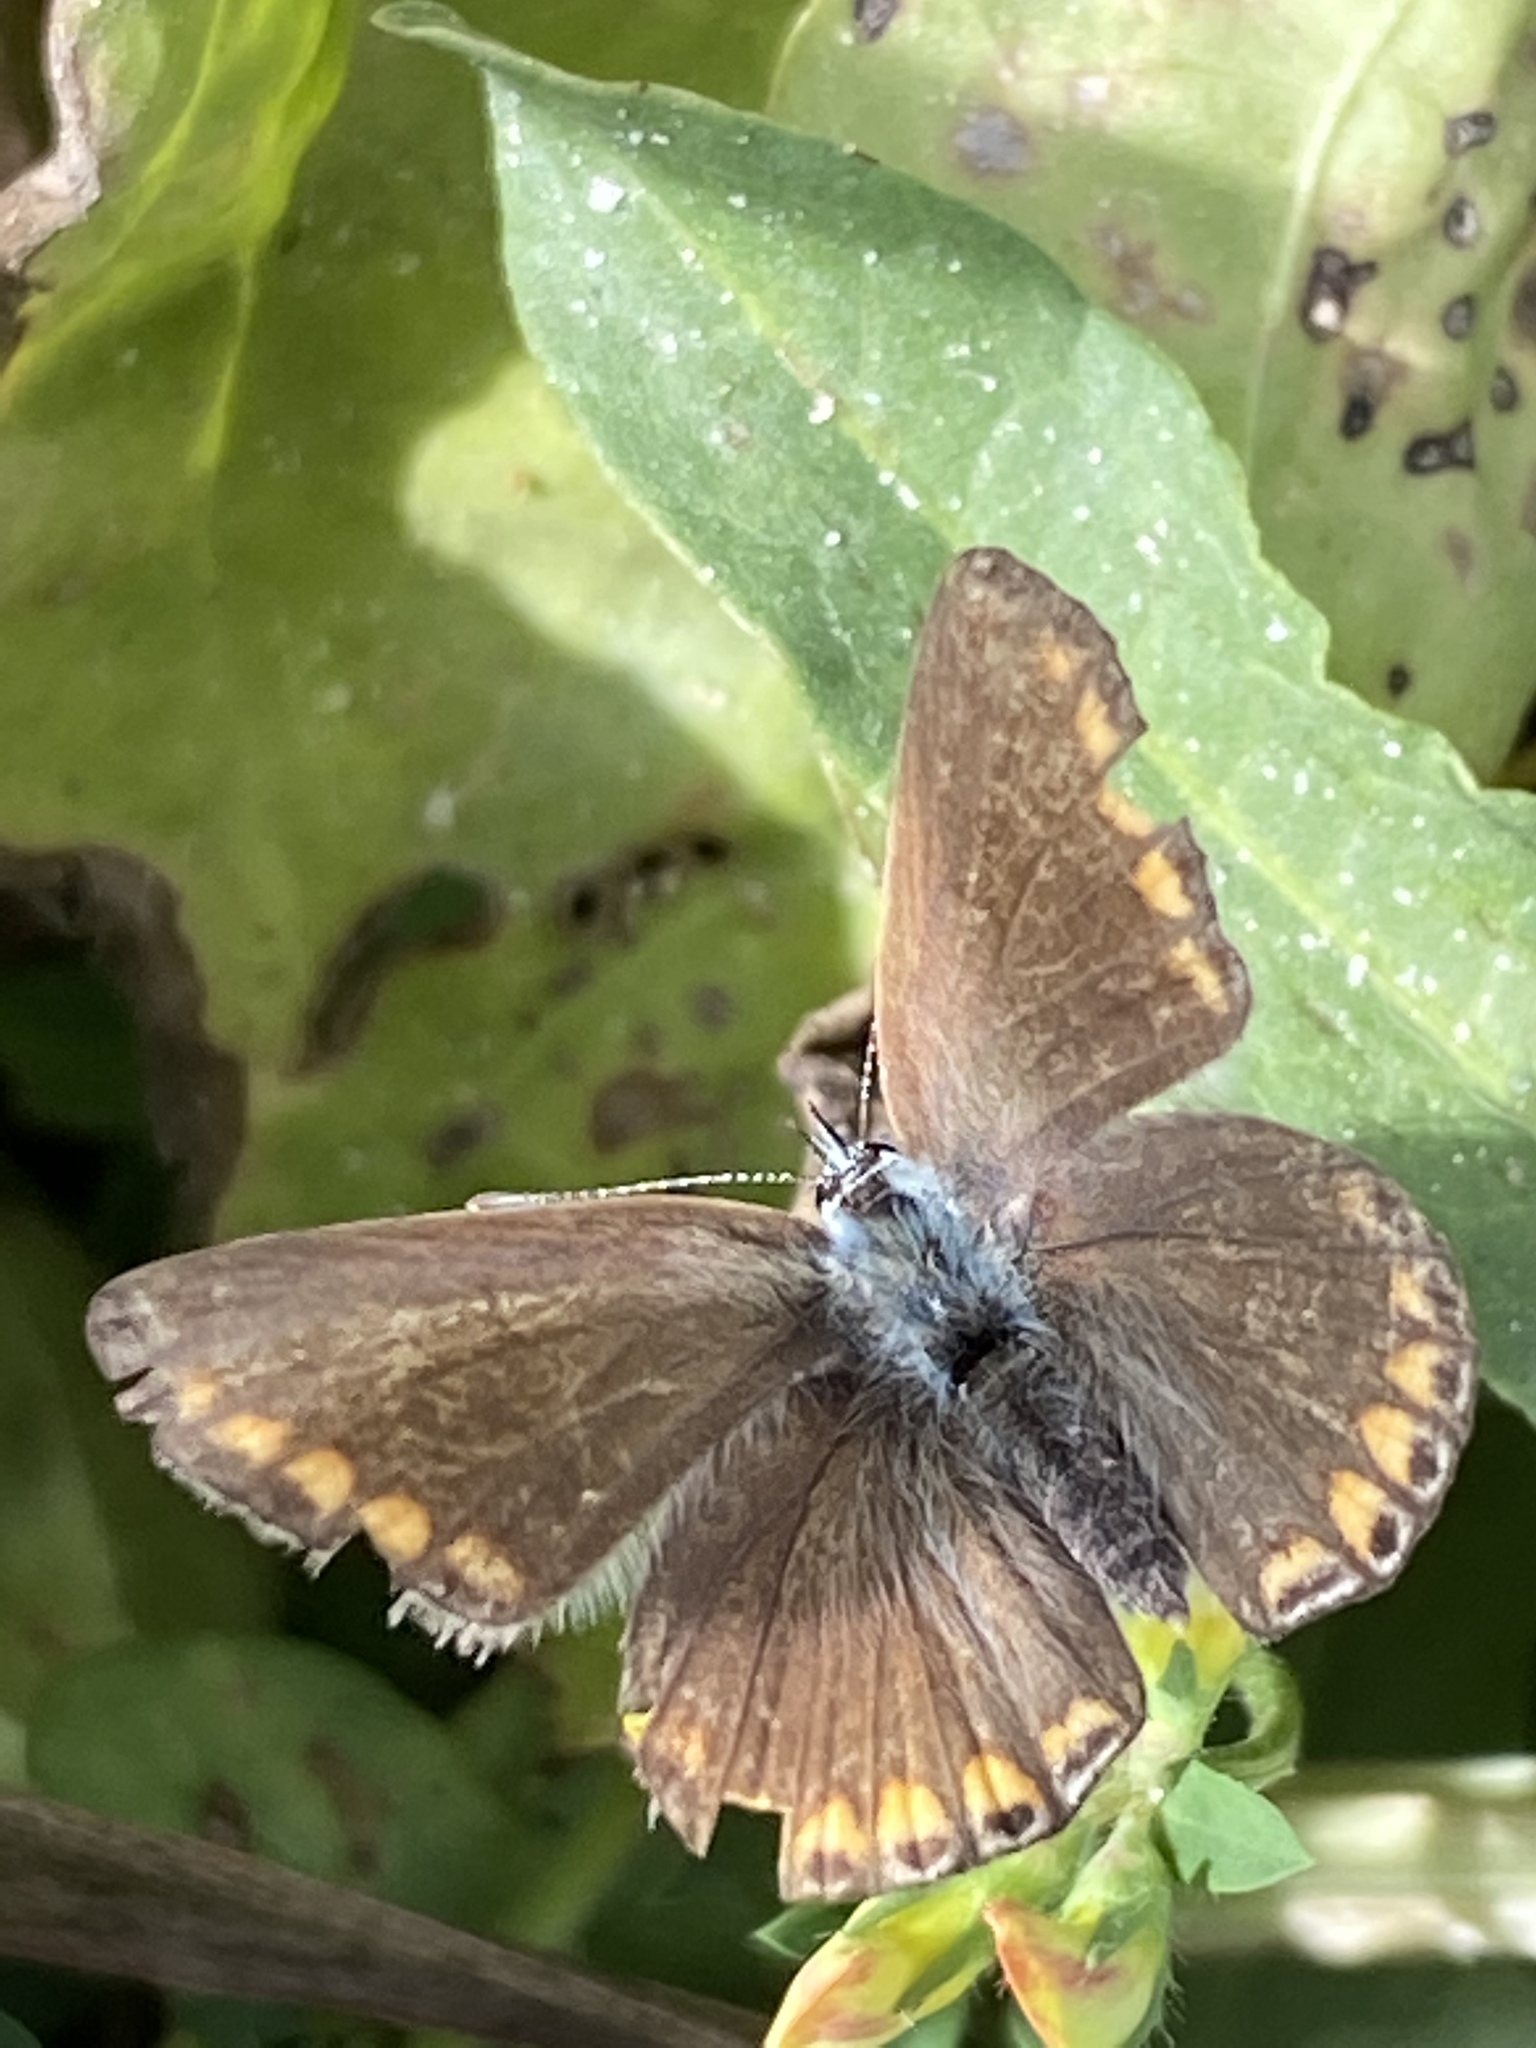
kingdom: Animalia
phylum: Arthropoda
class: Insecta
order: Lepidoptera
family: Lycaenidae
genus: Polyommatus
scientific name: Polyommatus icarus
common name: Common blue
